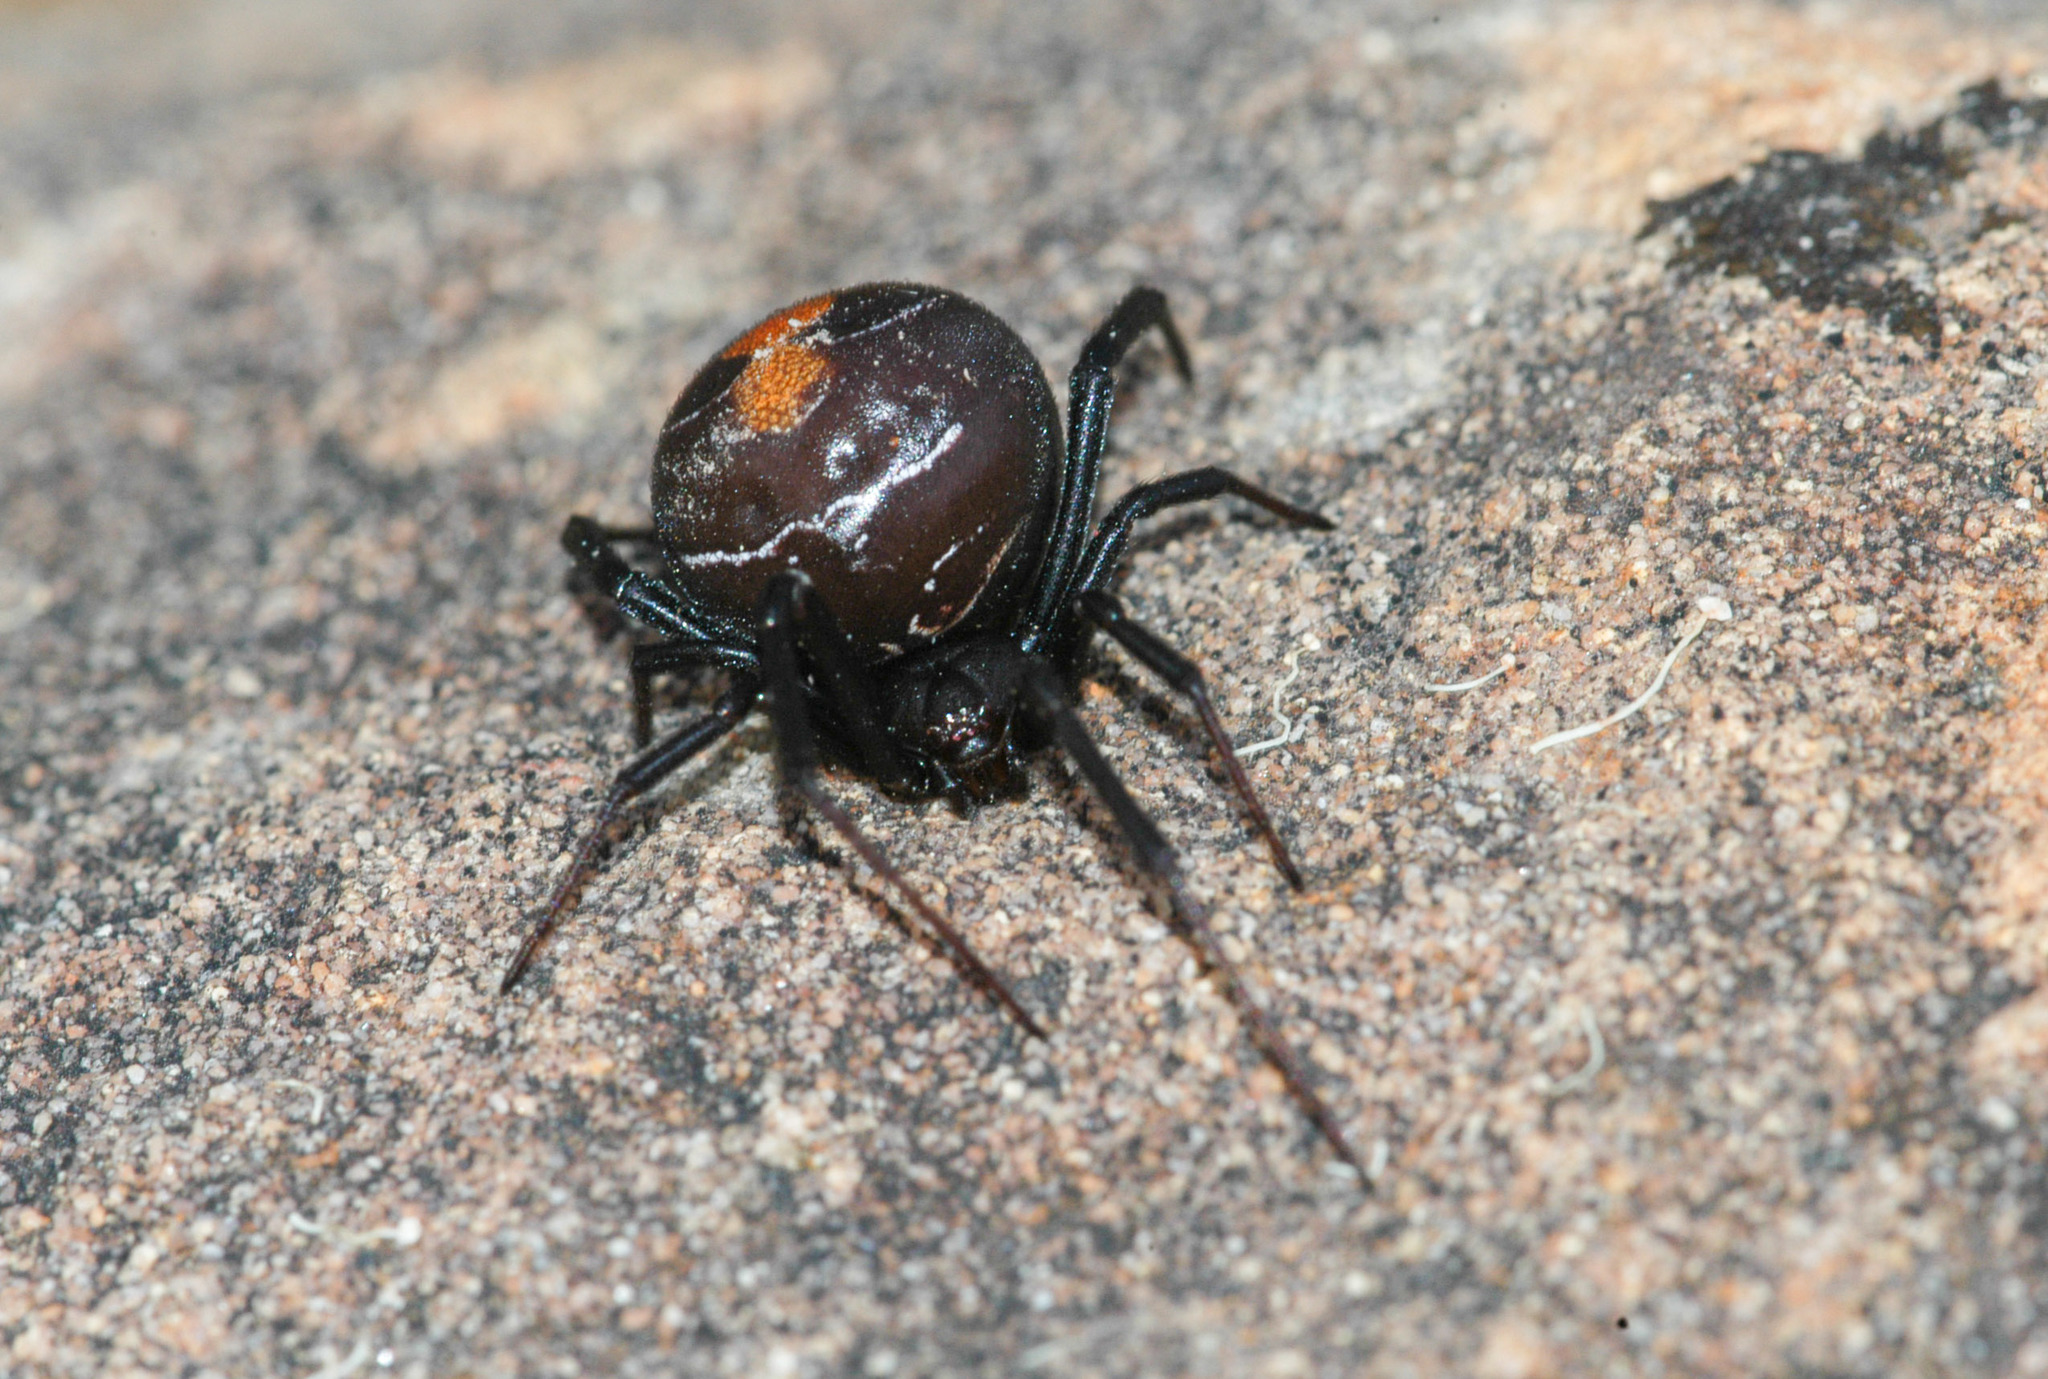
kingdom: Animalia
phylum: Arthropoda
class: Arachnida
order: Araneae
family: Theridiidae
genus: Latrodectus
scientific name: Latrodectus hasselti
